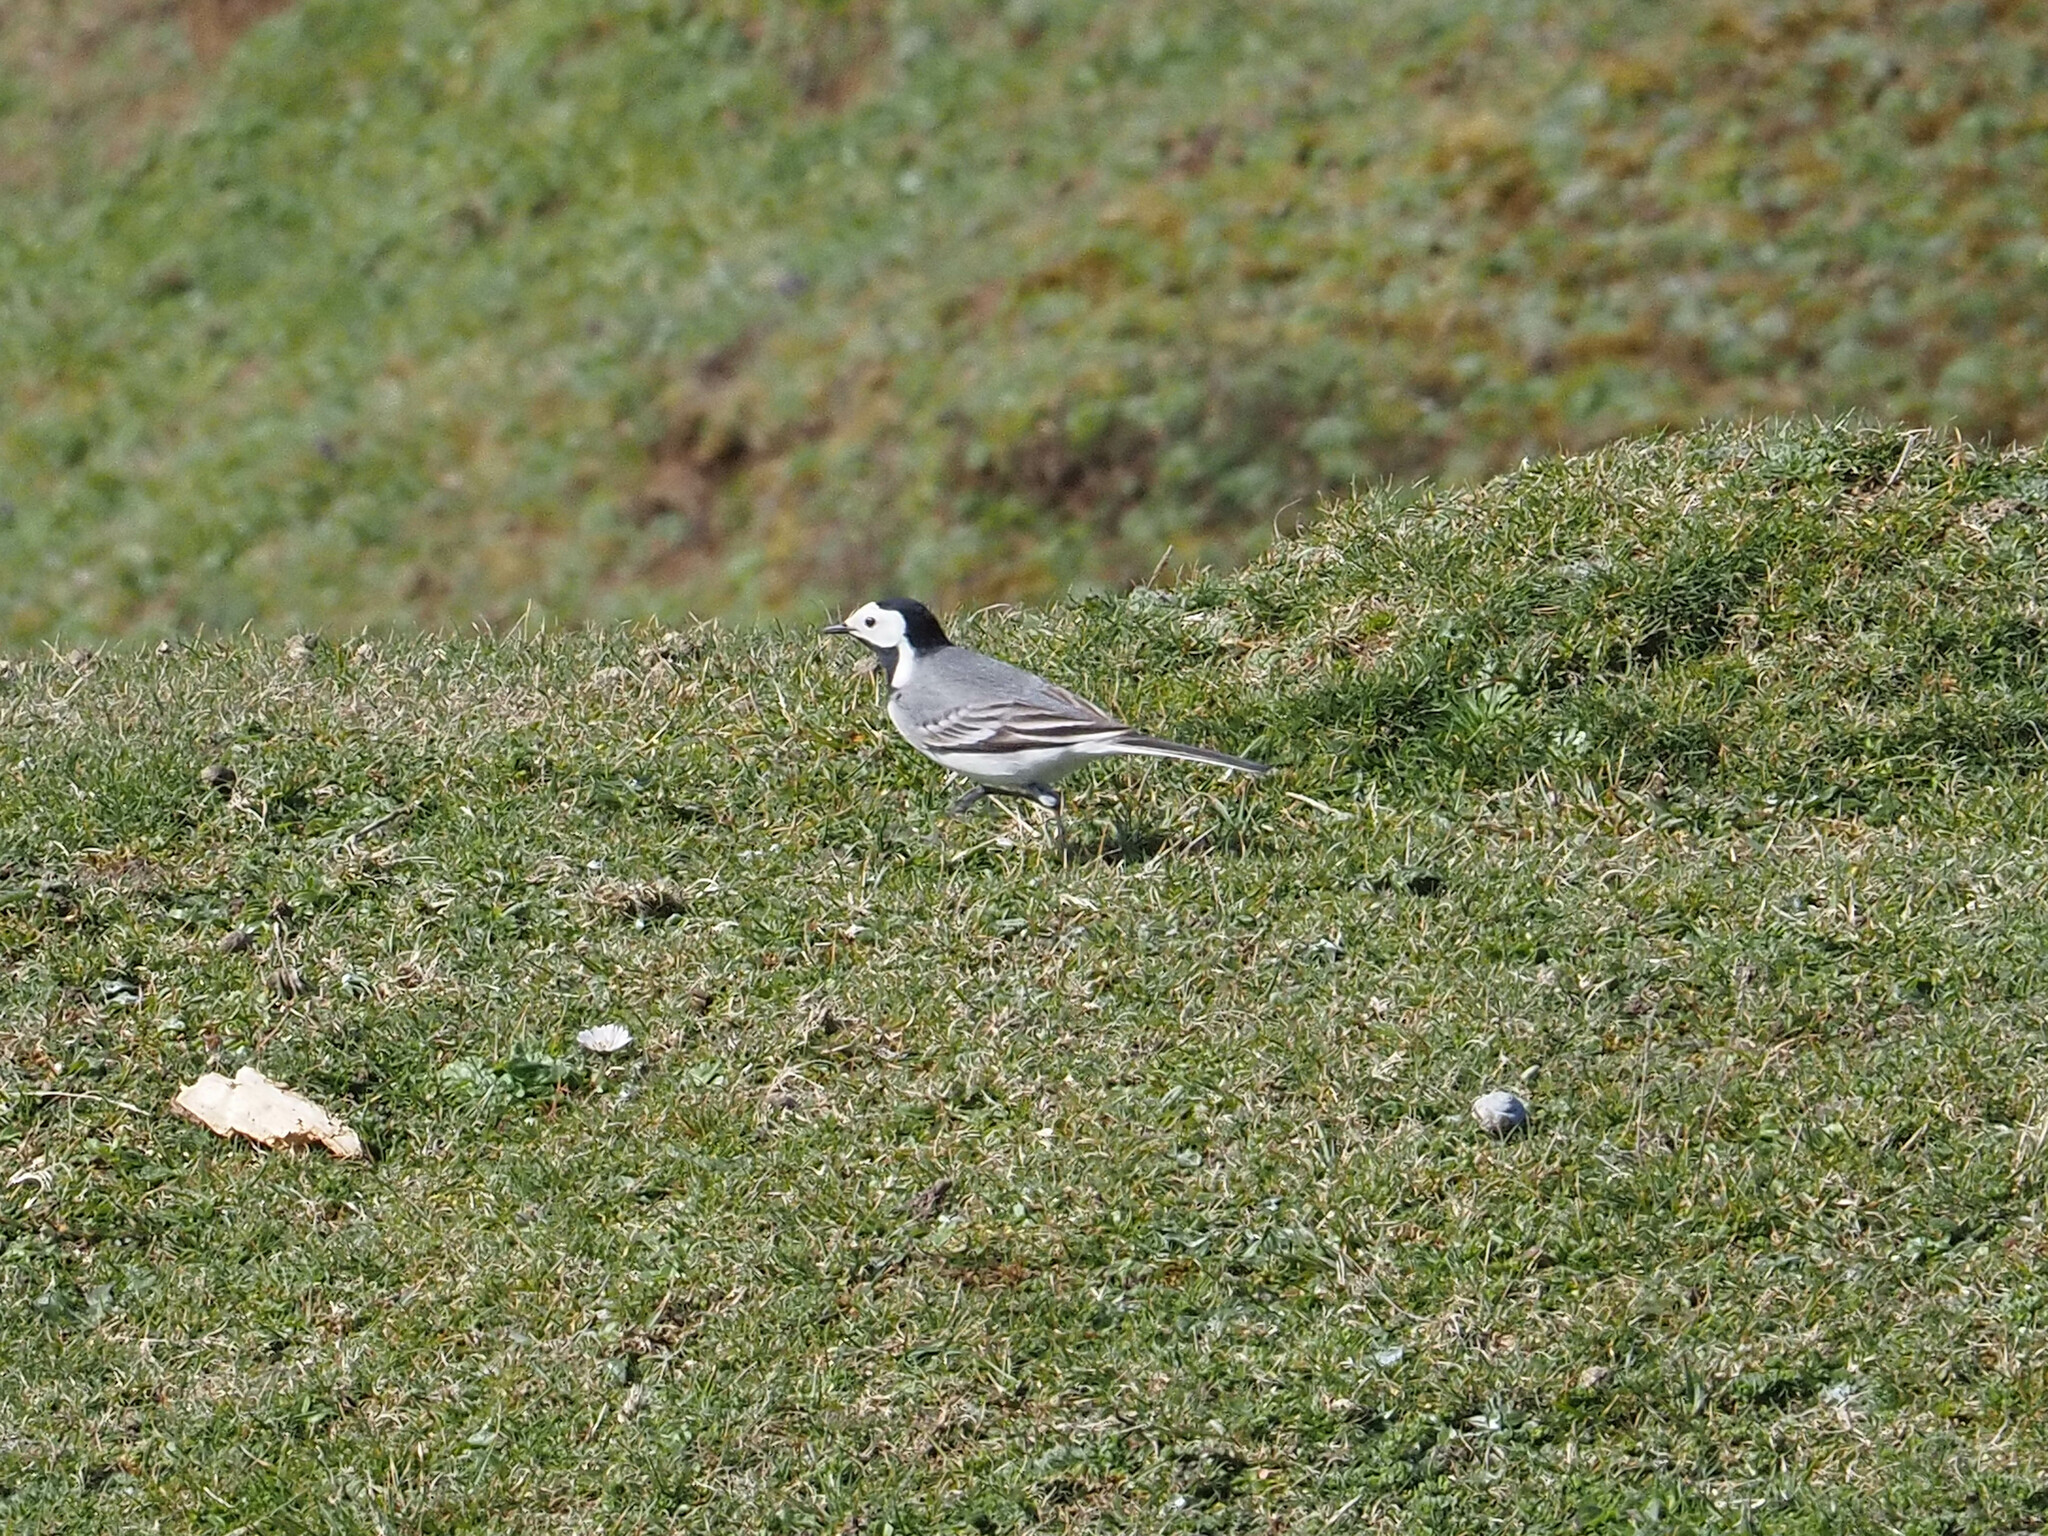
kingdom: Animalia
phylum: Chordata
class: Aves
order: Passeriformes
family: Motacillidae
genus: Motacilla
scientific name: Motacilla alba
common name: White wagtail
